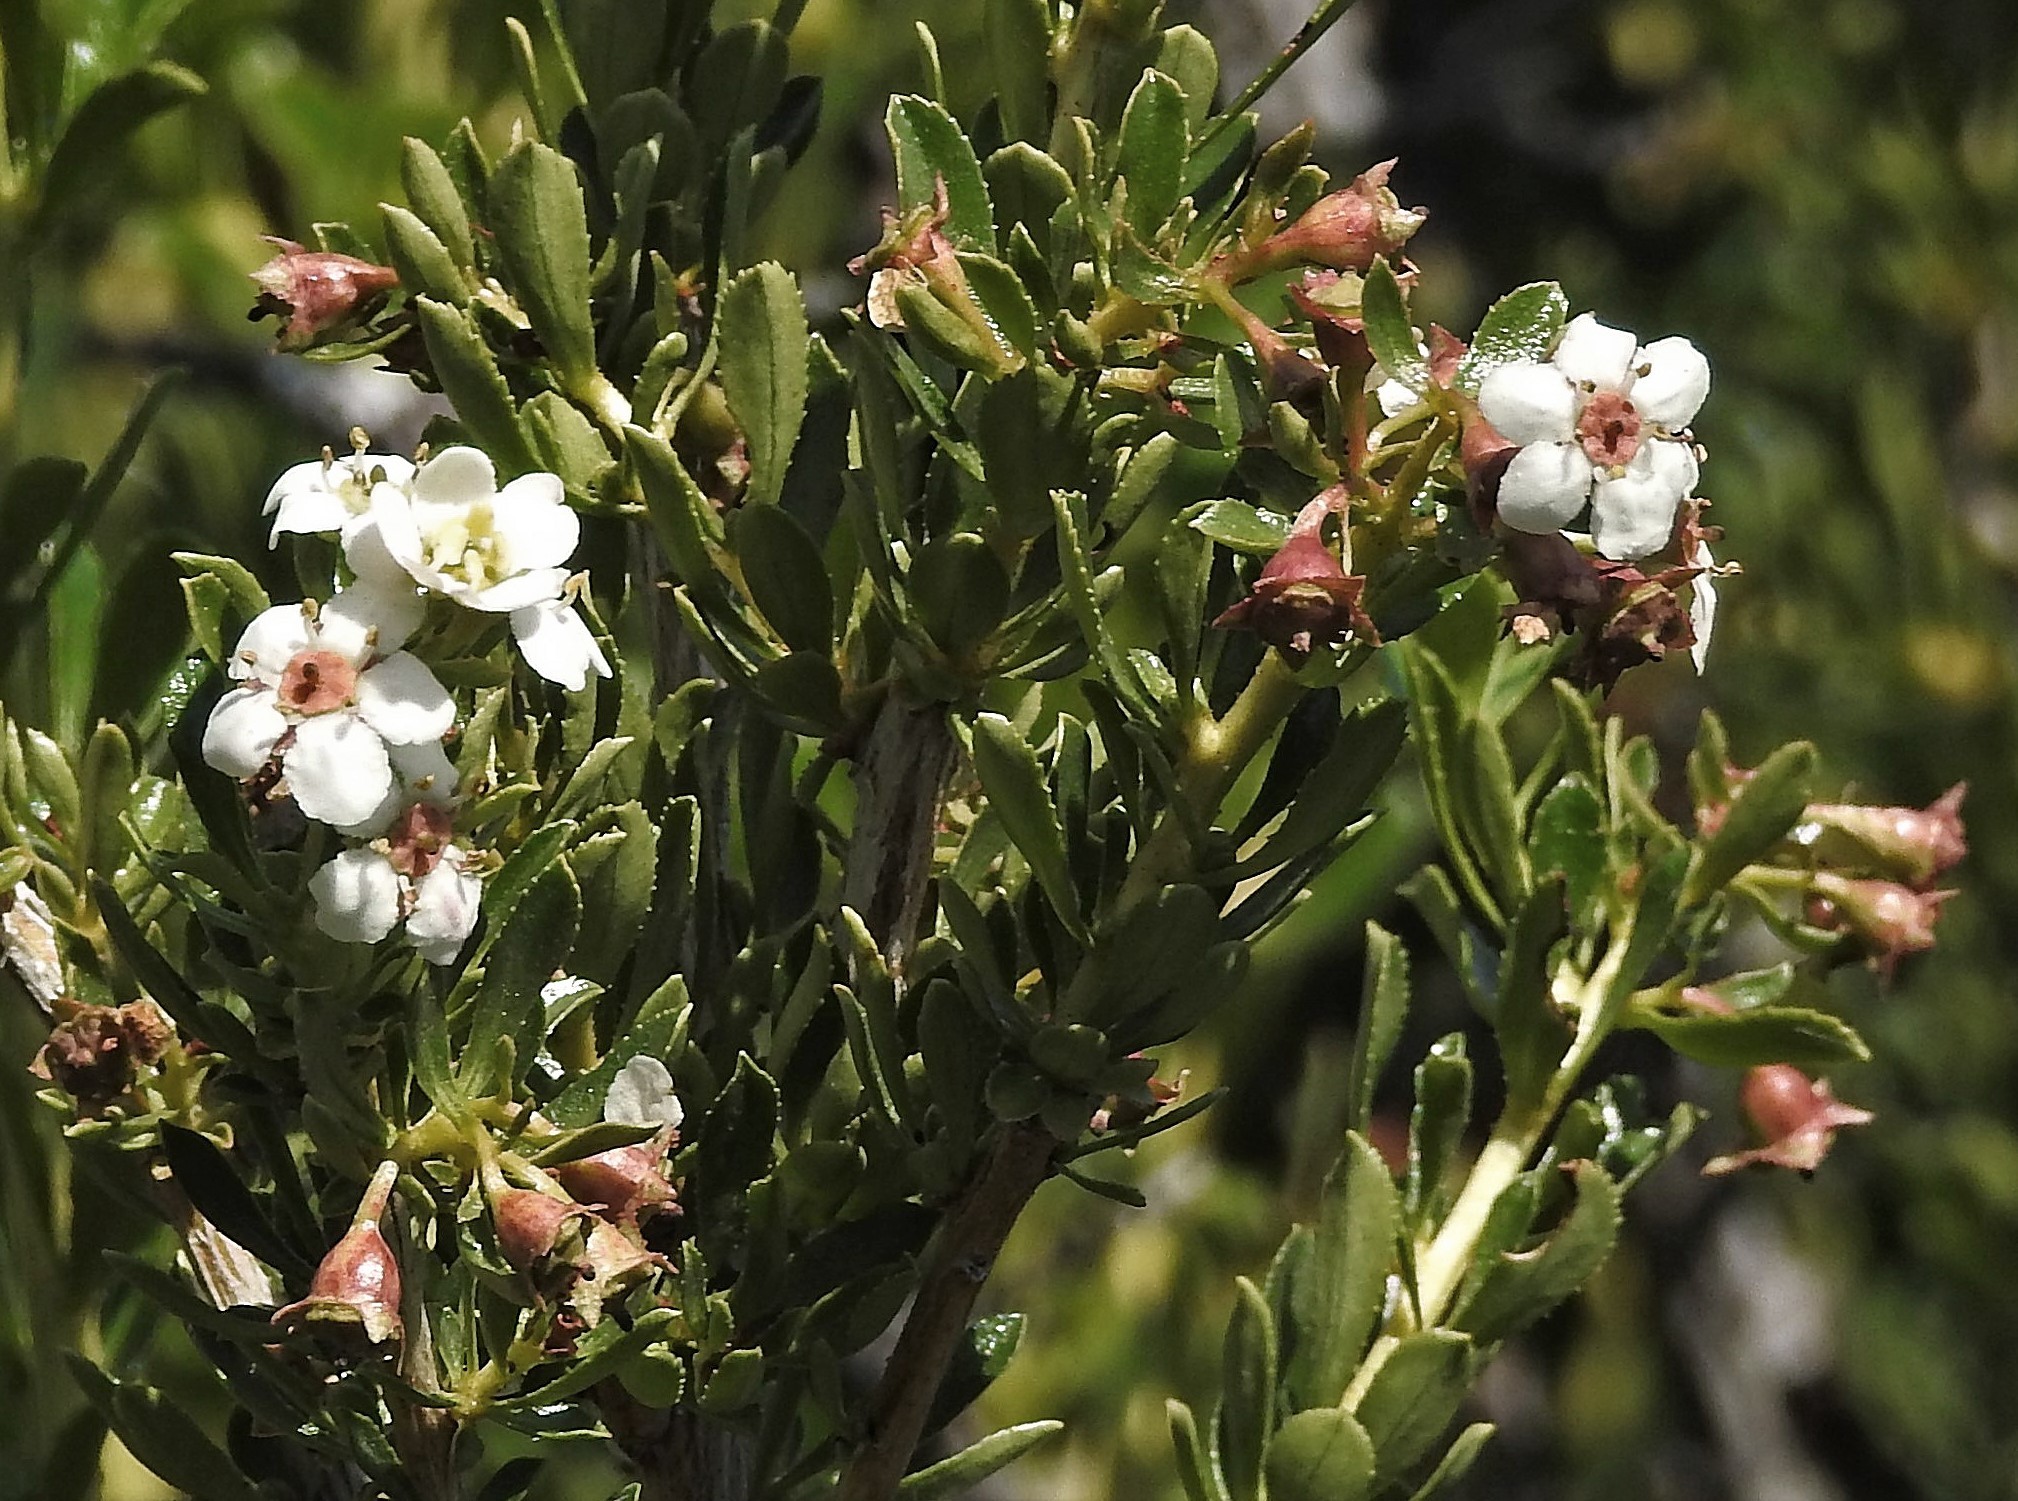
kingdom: Plantae
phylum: Tracheophyta
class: Magnoliopsida
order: Escalloniales
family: Escalloniaceae
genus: Escallonia
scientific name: Escallonia virgata
